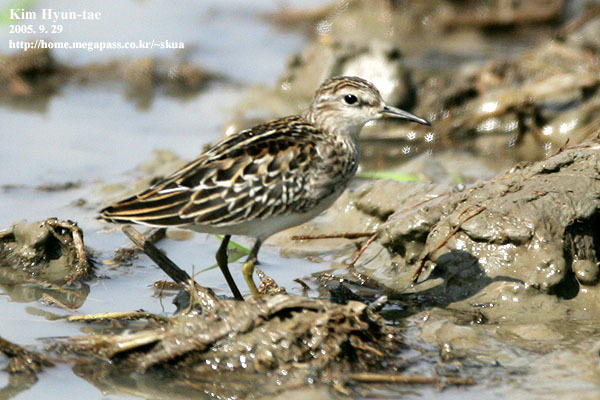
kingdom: Animalia
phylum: Chordata
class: Aves
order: Charadriiformes
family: Scolopacidae
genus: Calidris
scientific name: Calidris subminuta
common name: Long-toed stint
